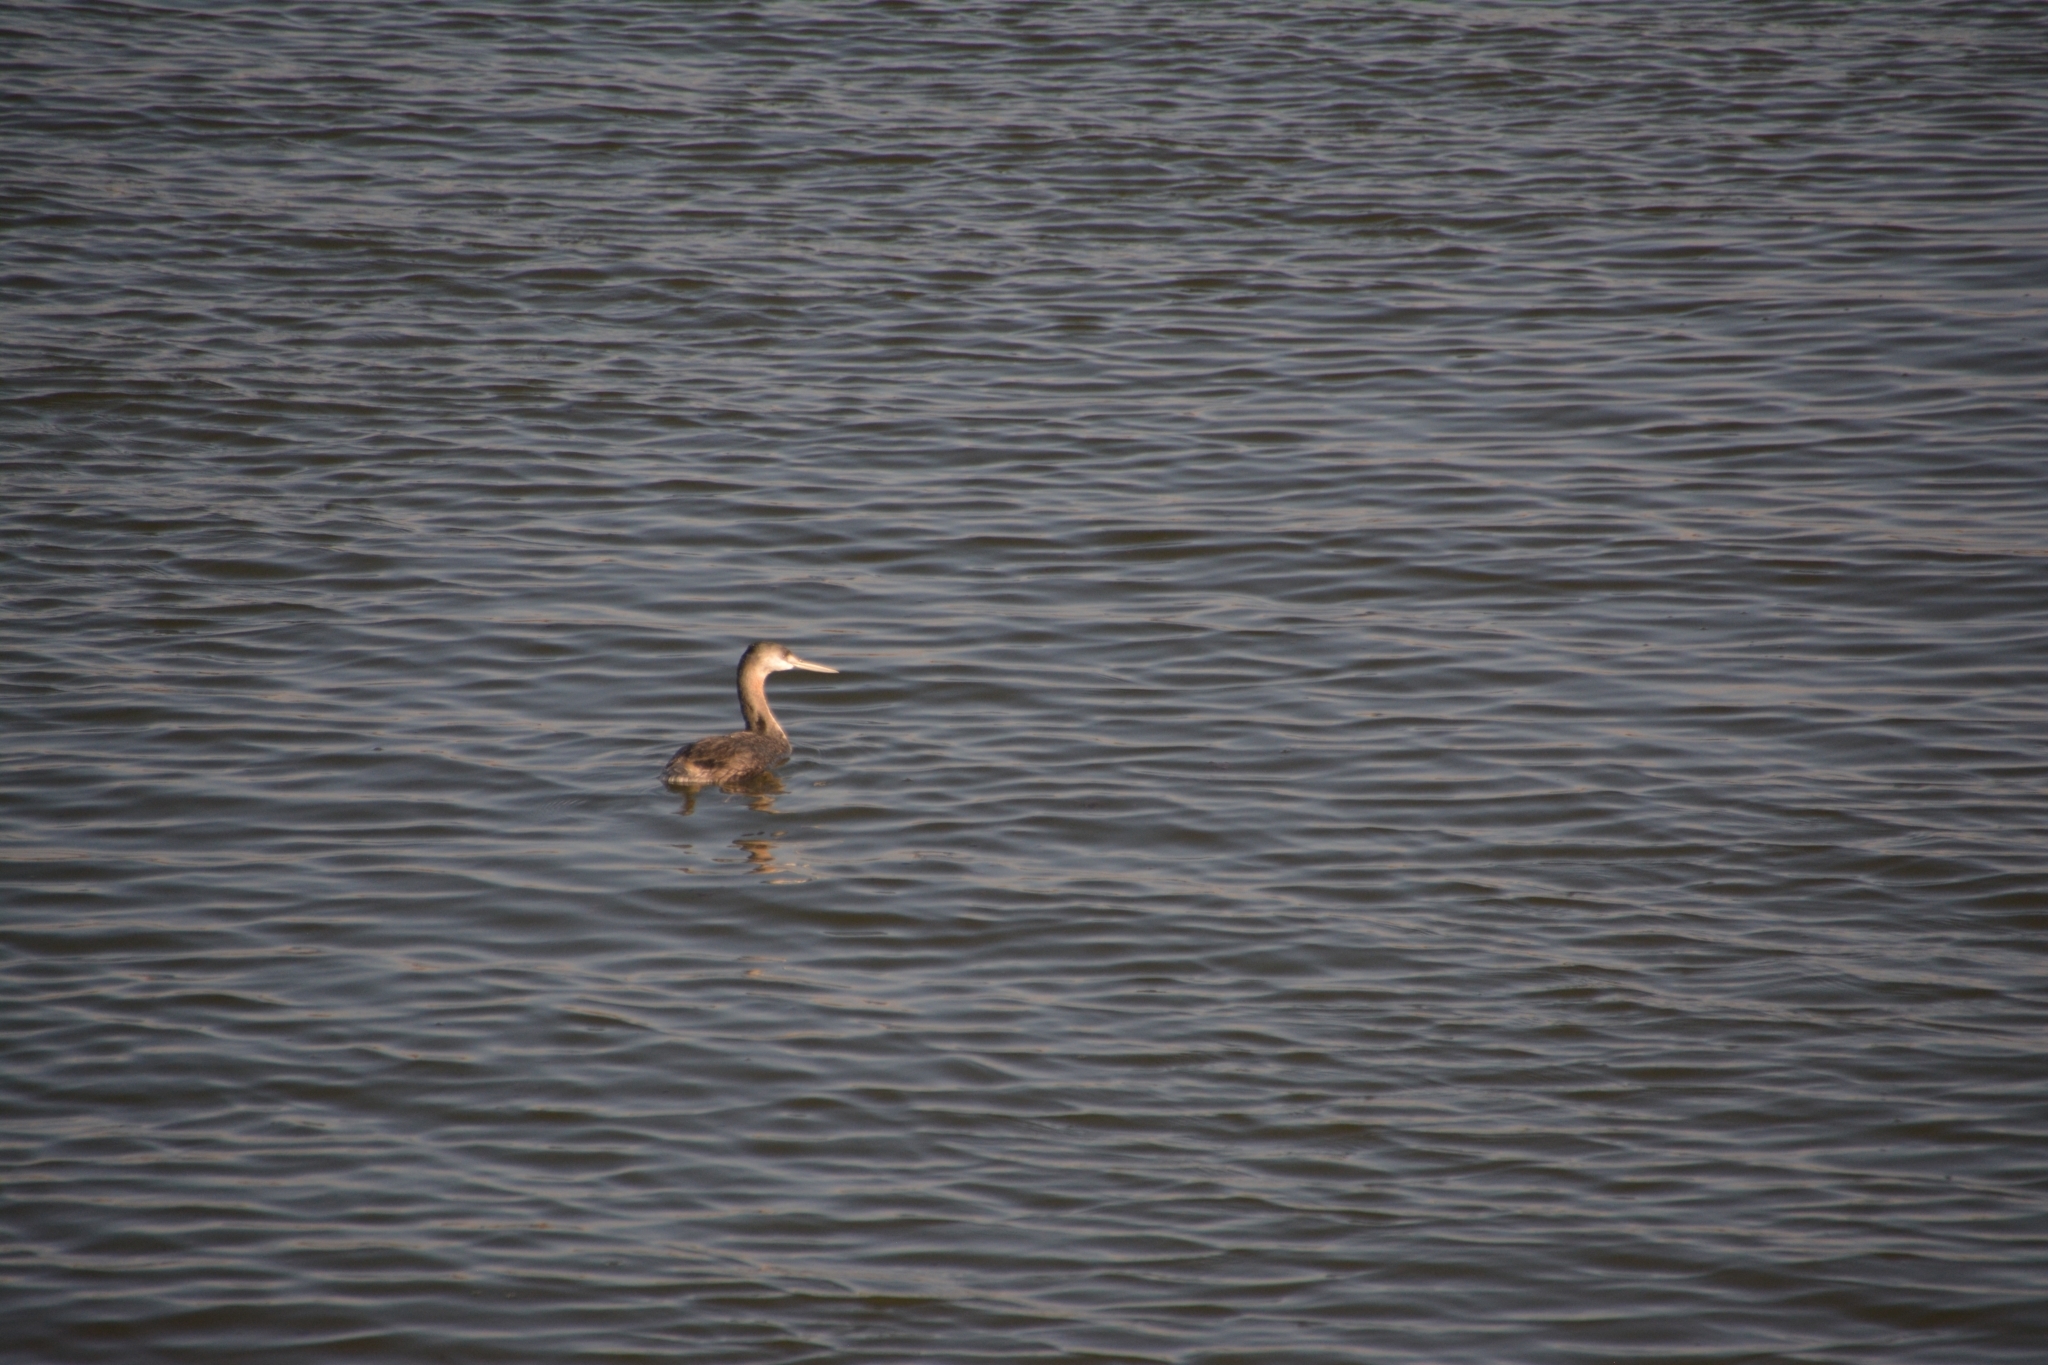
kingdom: Animalia
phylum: Chordata
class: Aves
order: Podicipediformes
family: Podicipedidae
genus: Podiceps
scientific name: Podiceps major
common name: Great grebe
